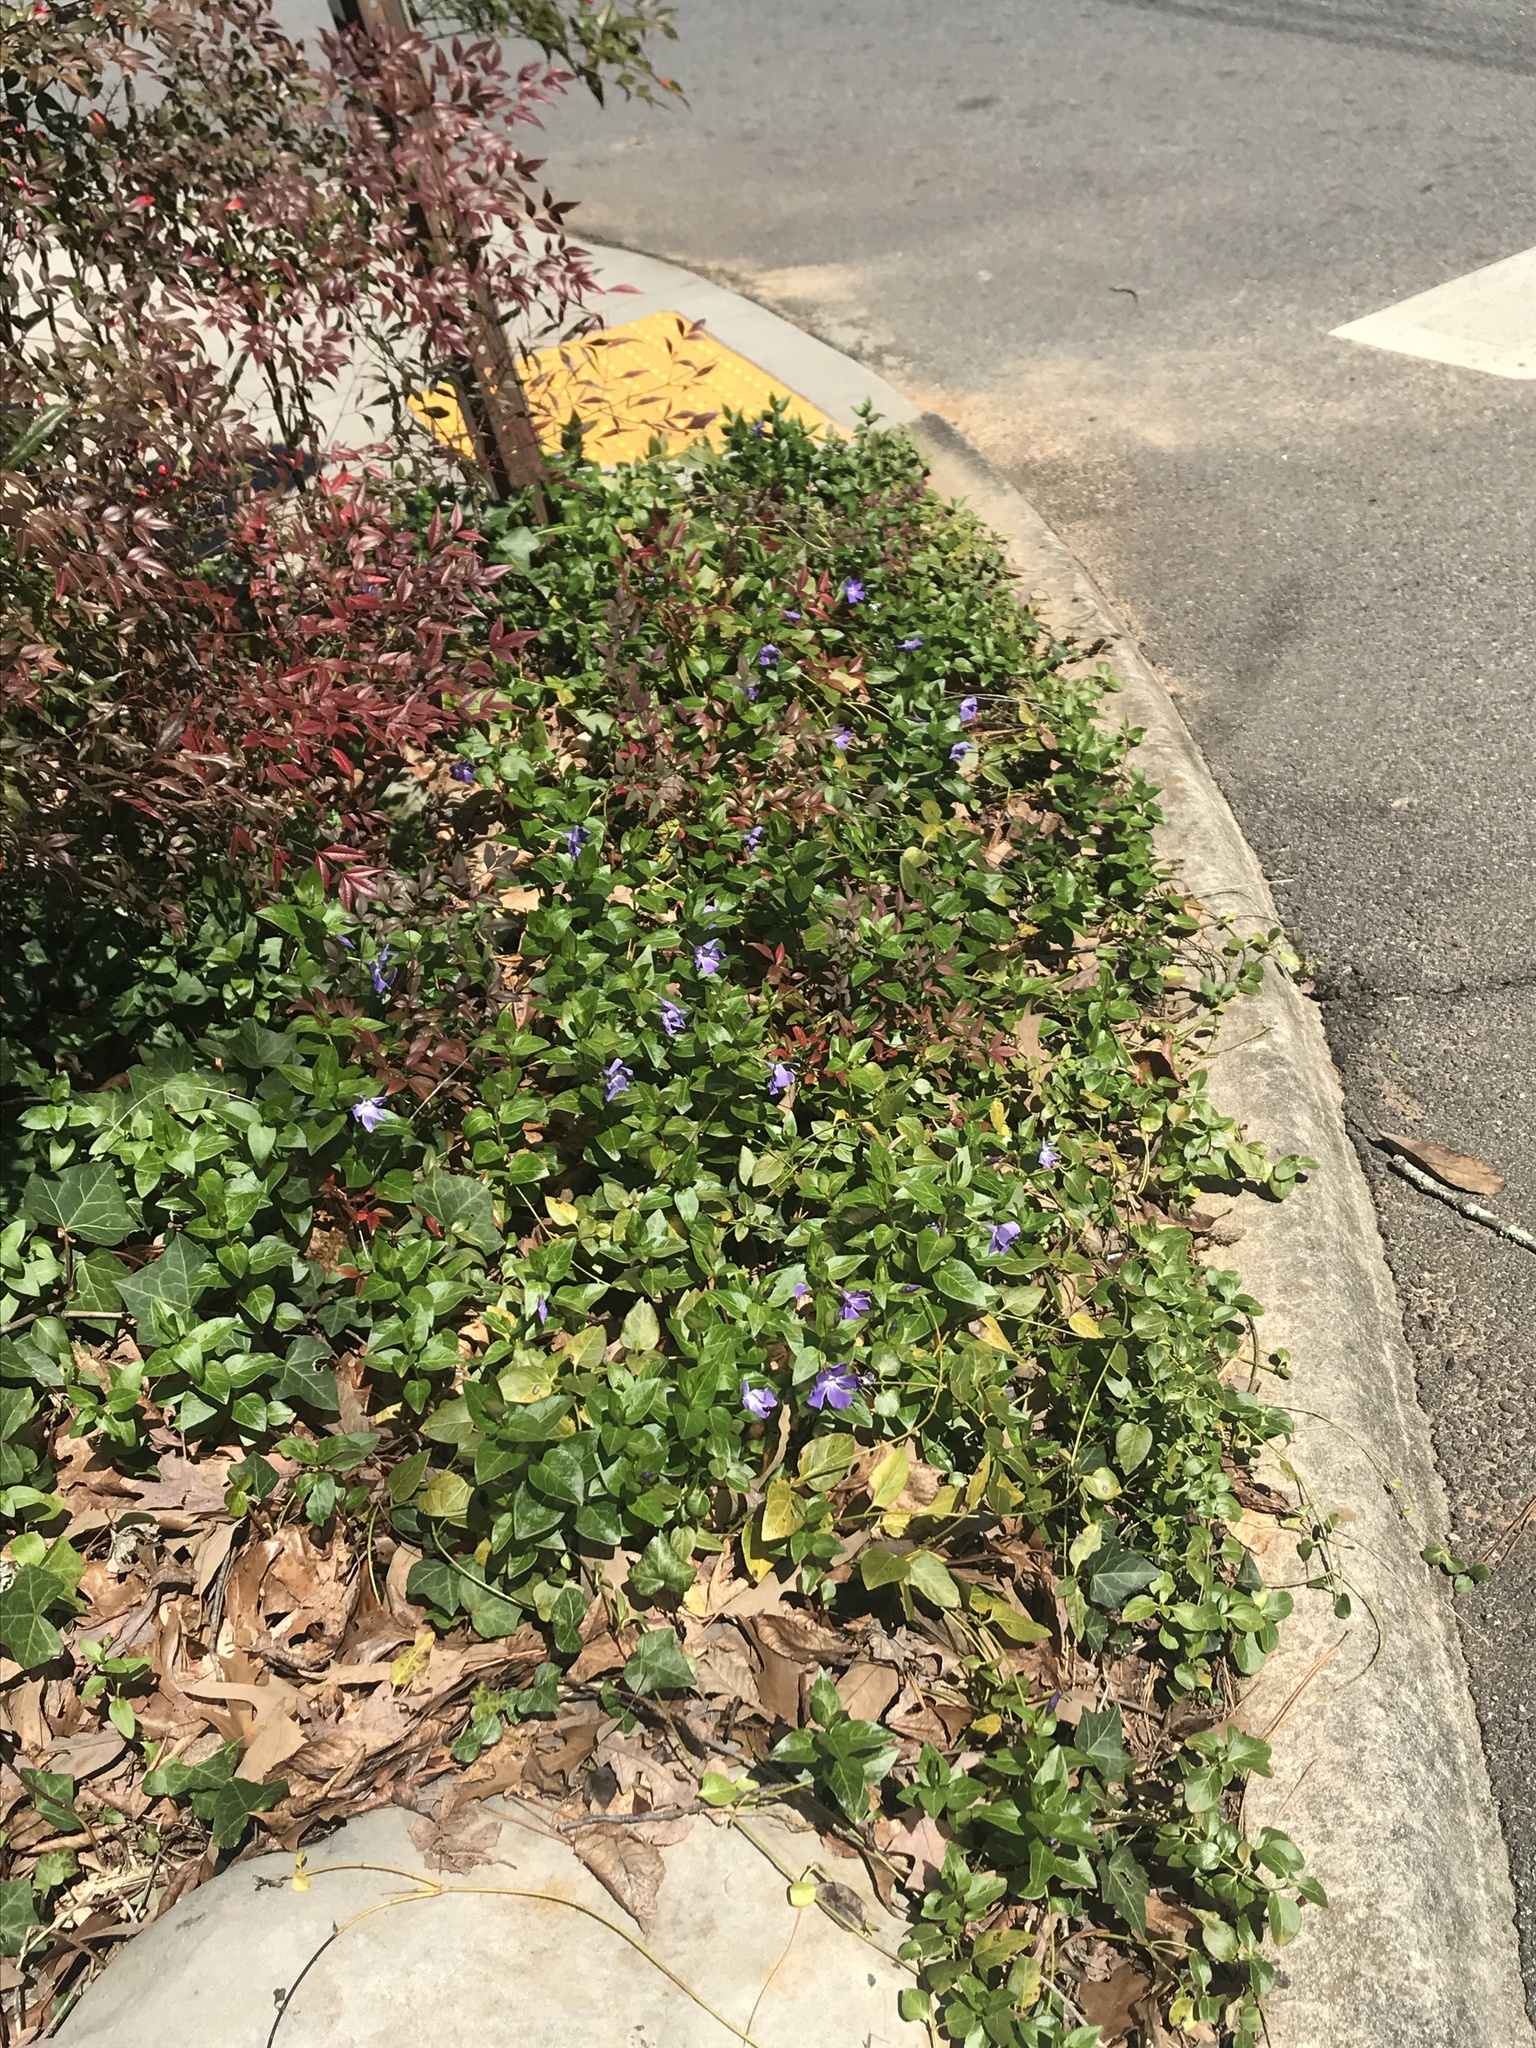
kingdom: Plantae
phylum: Tracheophyta
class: Magnoliopsida
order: Gentianales
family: Apocynaceae
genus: Vinca
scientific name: Vinca major
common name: Greater periwinkle
